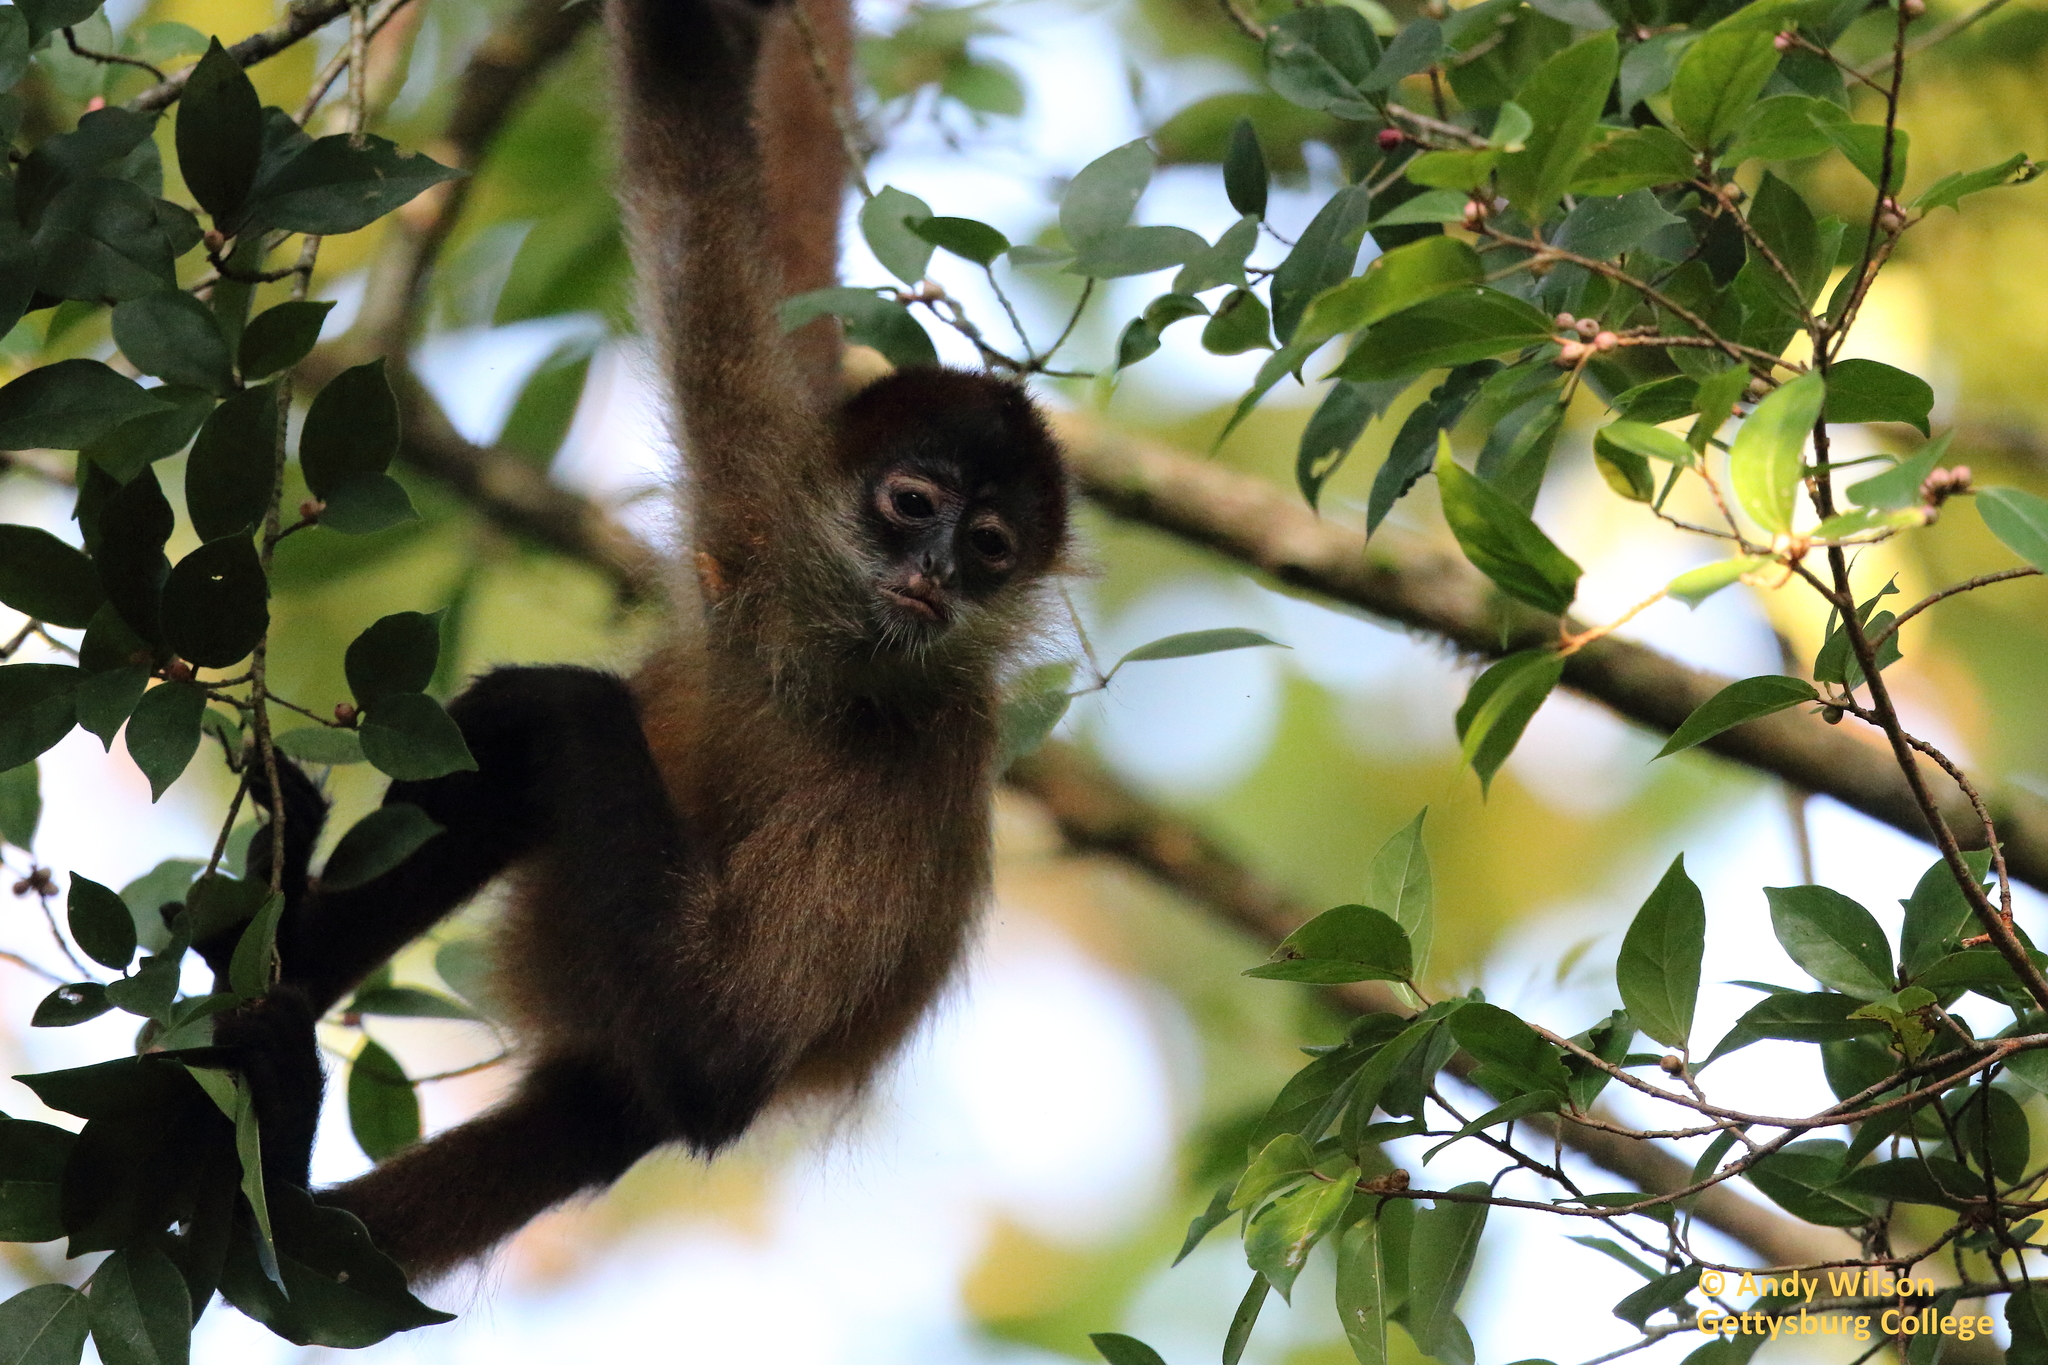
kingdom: Animalia
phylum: Chordata
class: Mammalia
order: Primates
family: Atelidae
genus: Ateles
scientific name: Ateles geoffroyi
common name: Black-handed spider monkey
